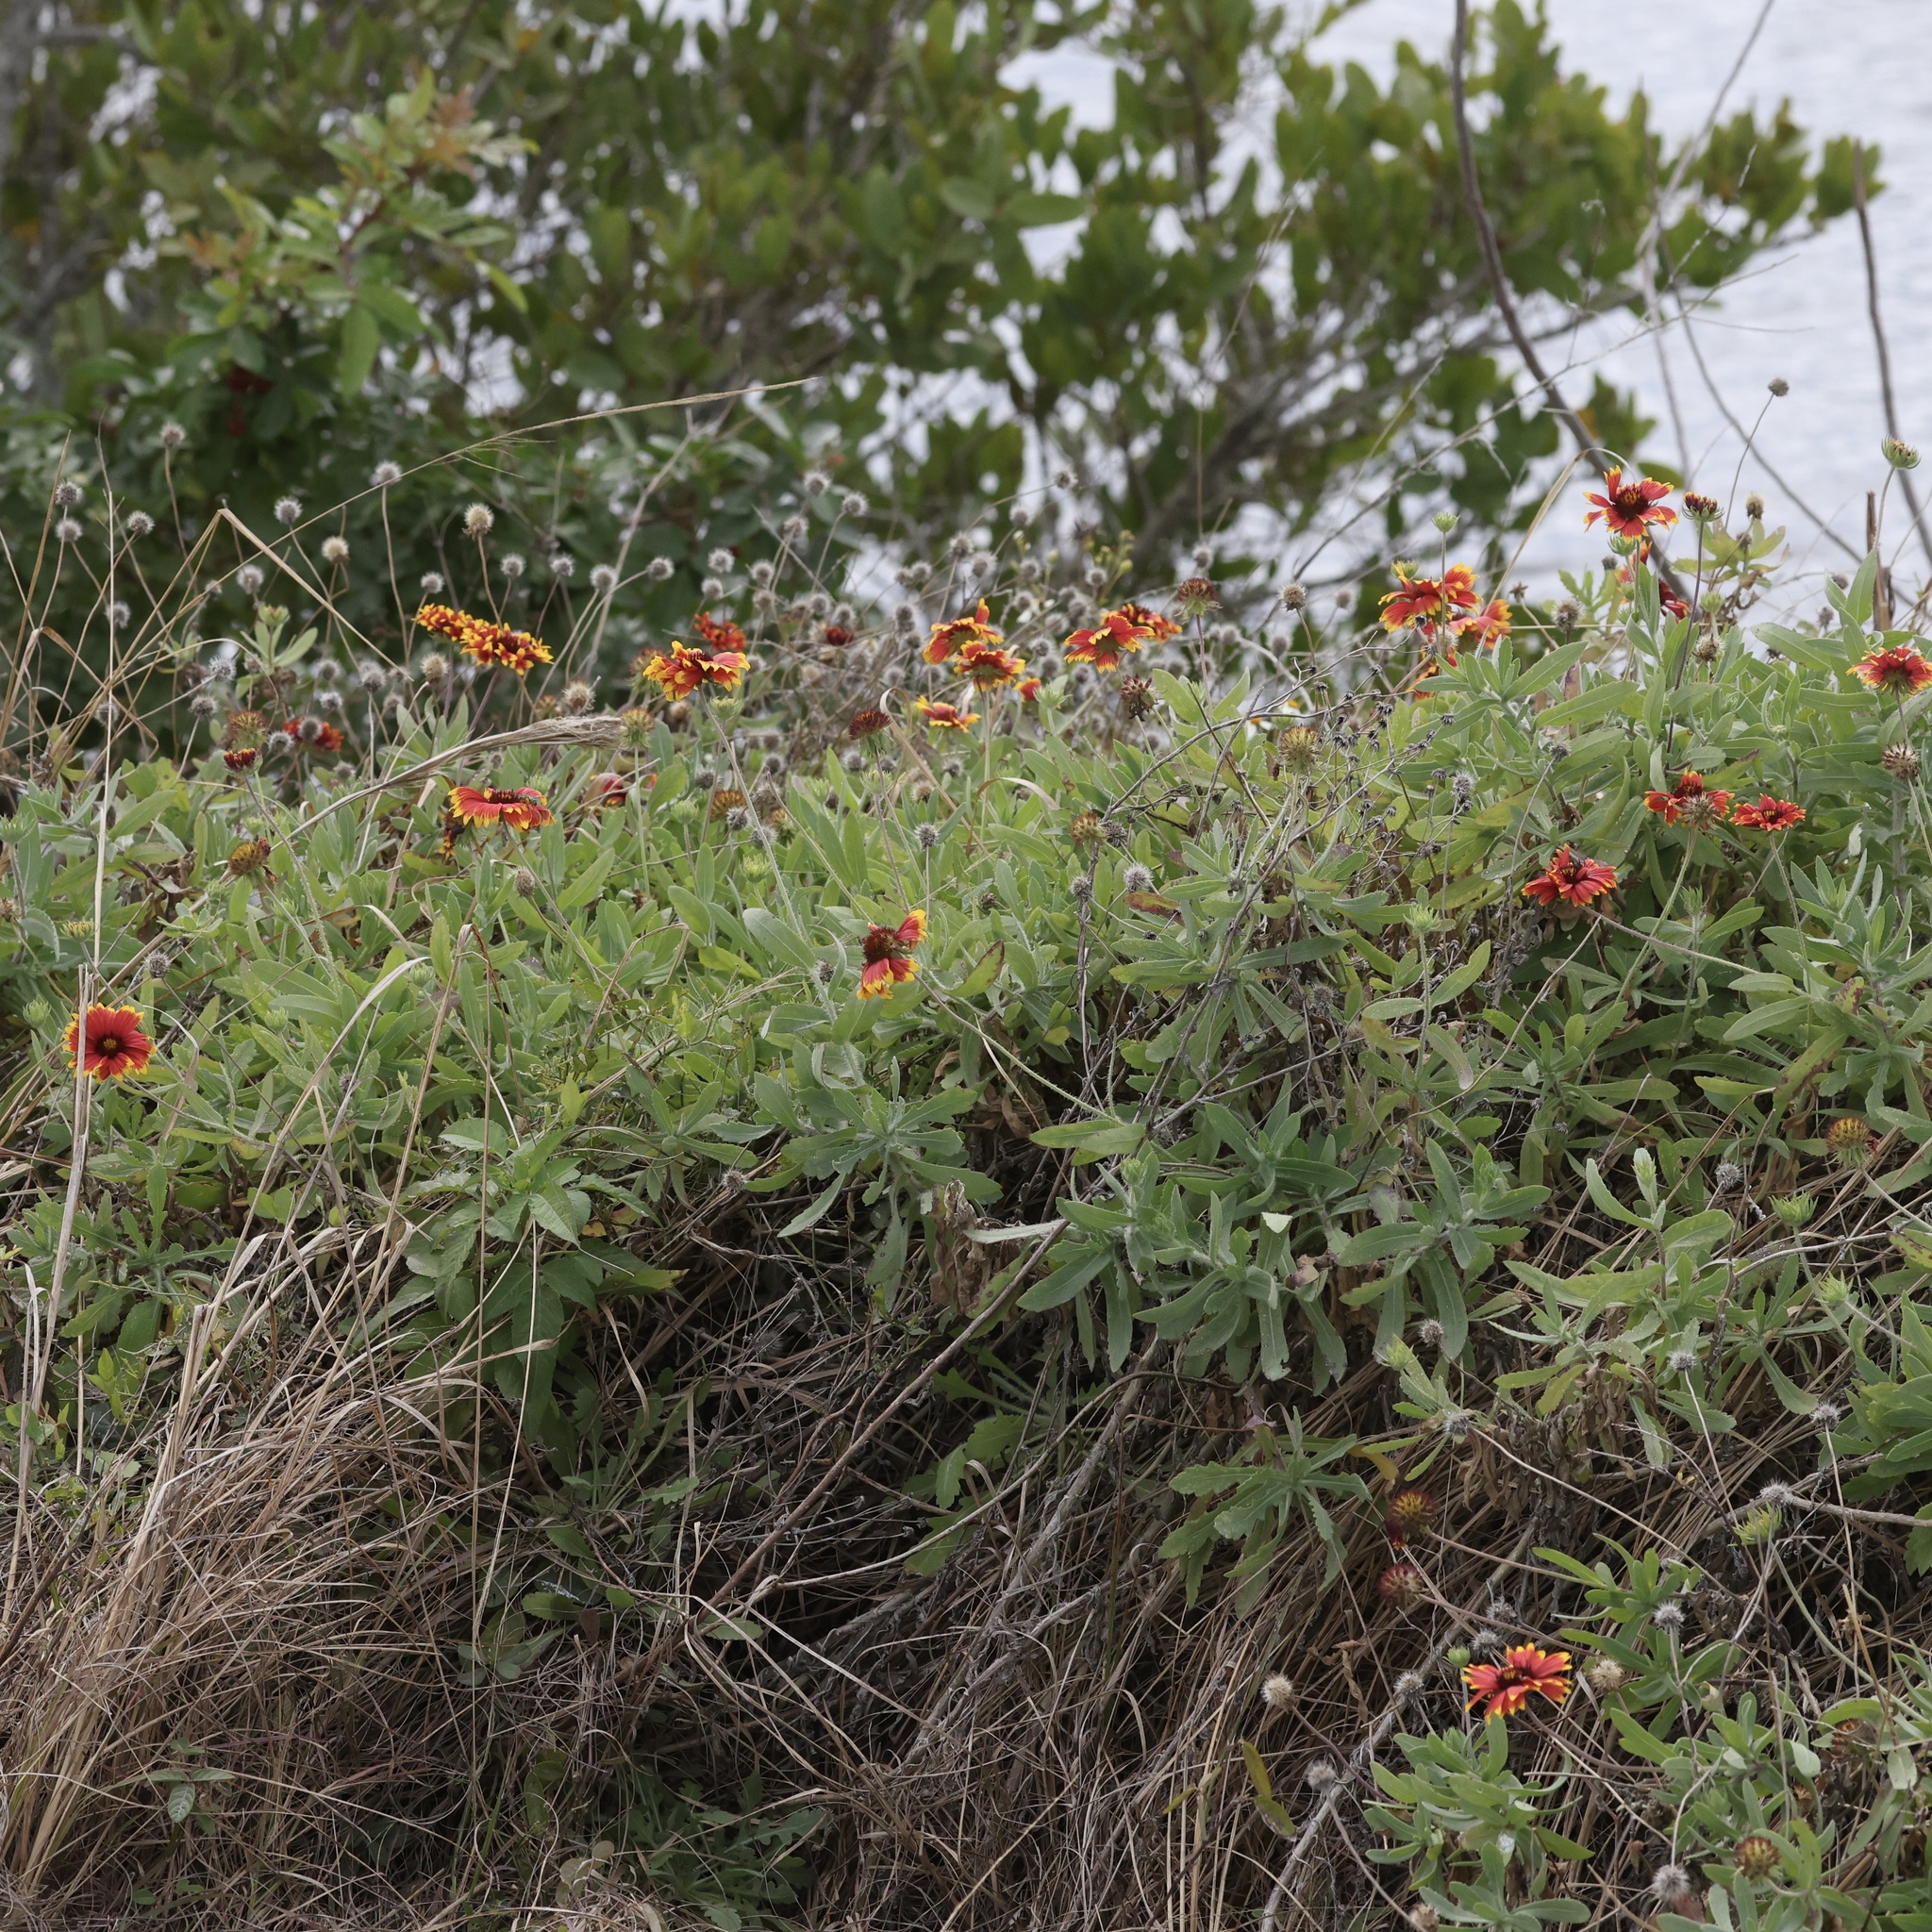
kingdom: Plantae
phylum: Tracheophyta
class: Magnoliopsida
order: Asterales
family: Asteraceae
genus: Gaillardia
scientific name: Gaillardia pulchella
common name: Firewheel
